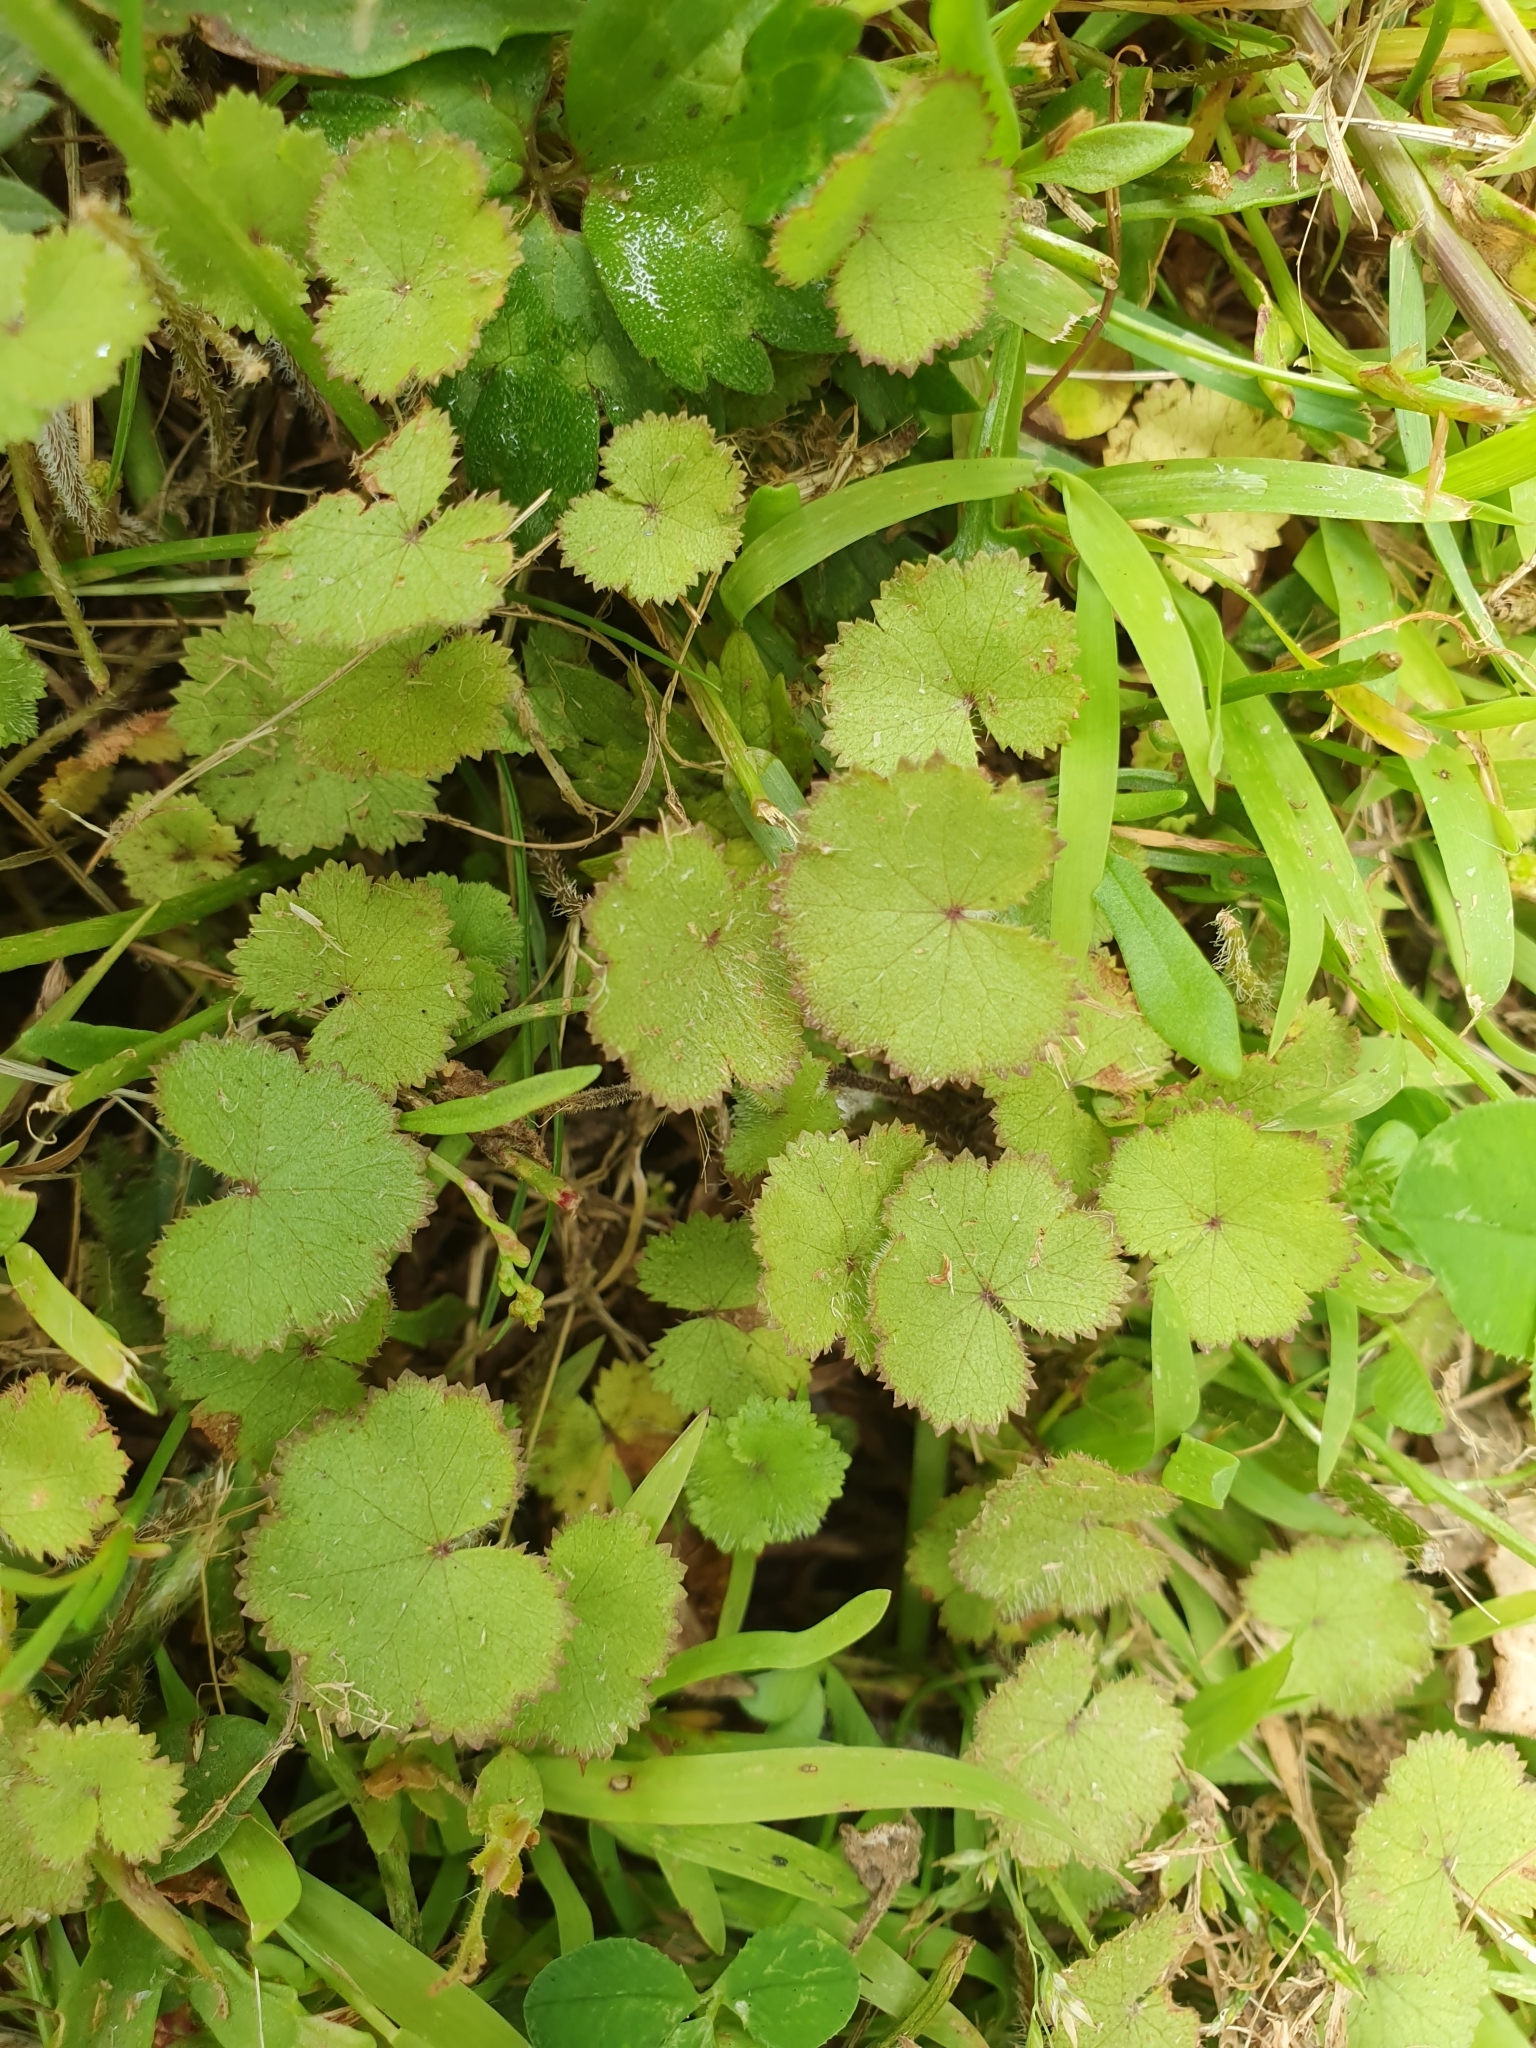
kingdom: Plantae
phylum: Tracheophyta
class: Magnoliopsida
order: Apiales
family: Araliaceae
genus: Hydrocotyle
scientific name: Hydrocotyle moschata
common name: Hairy pennywort
